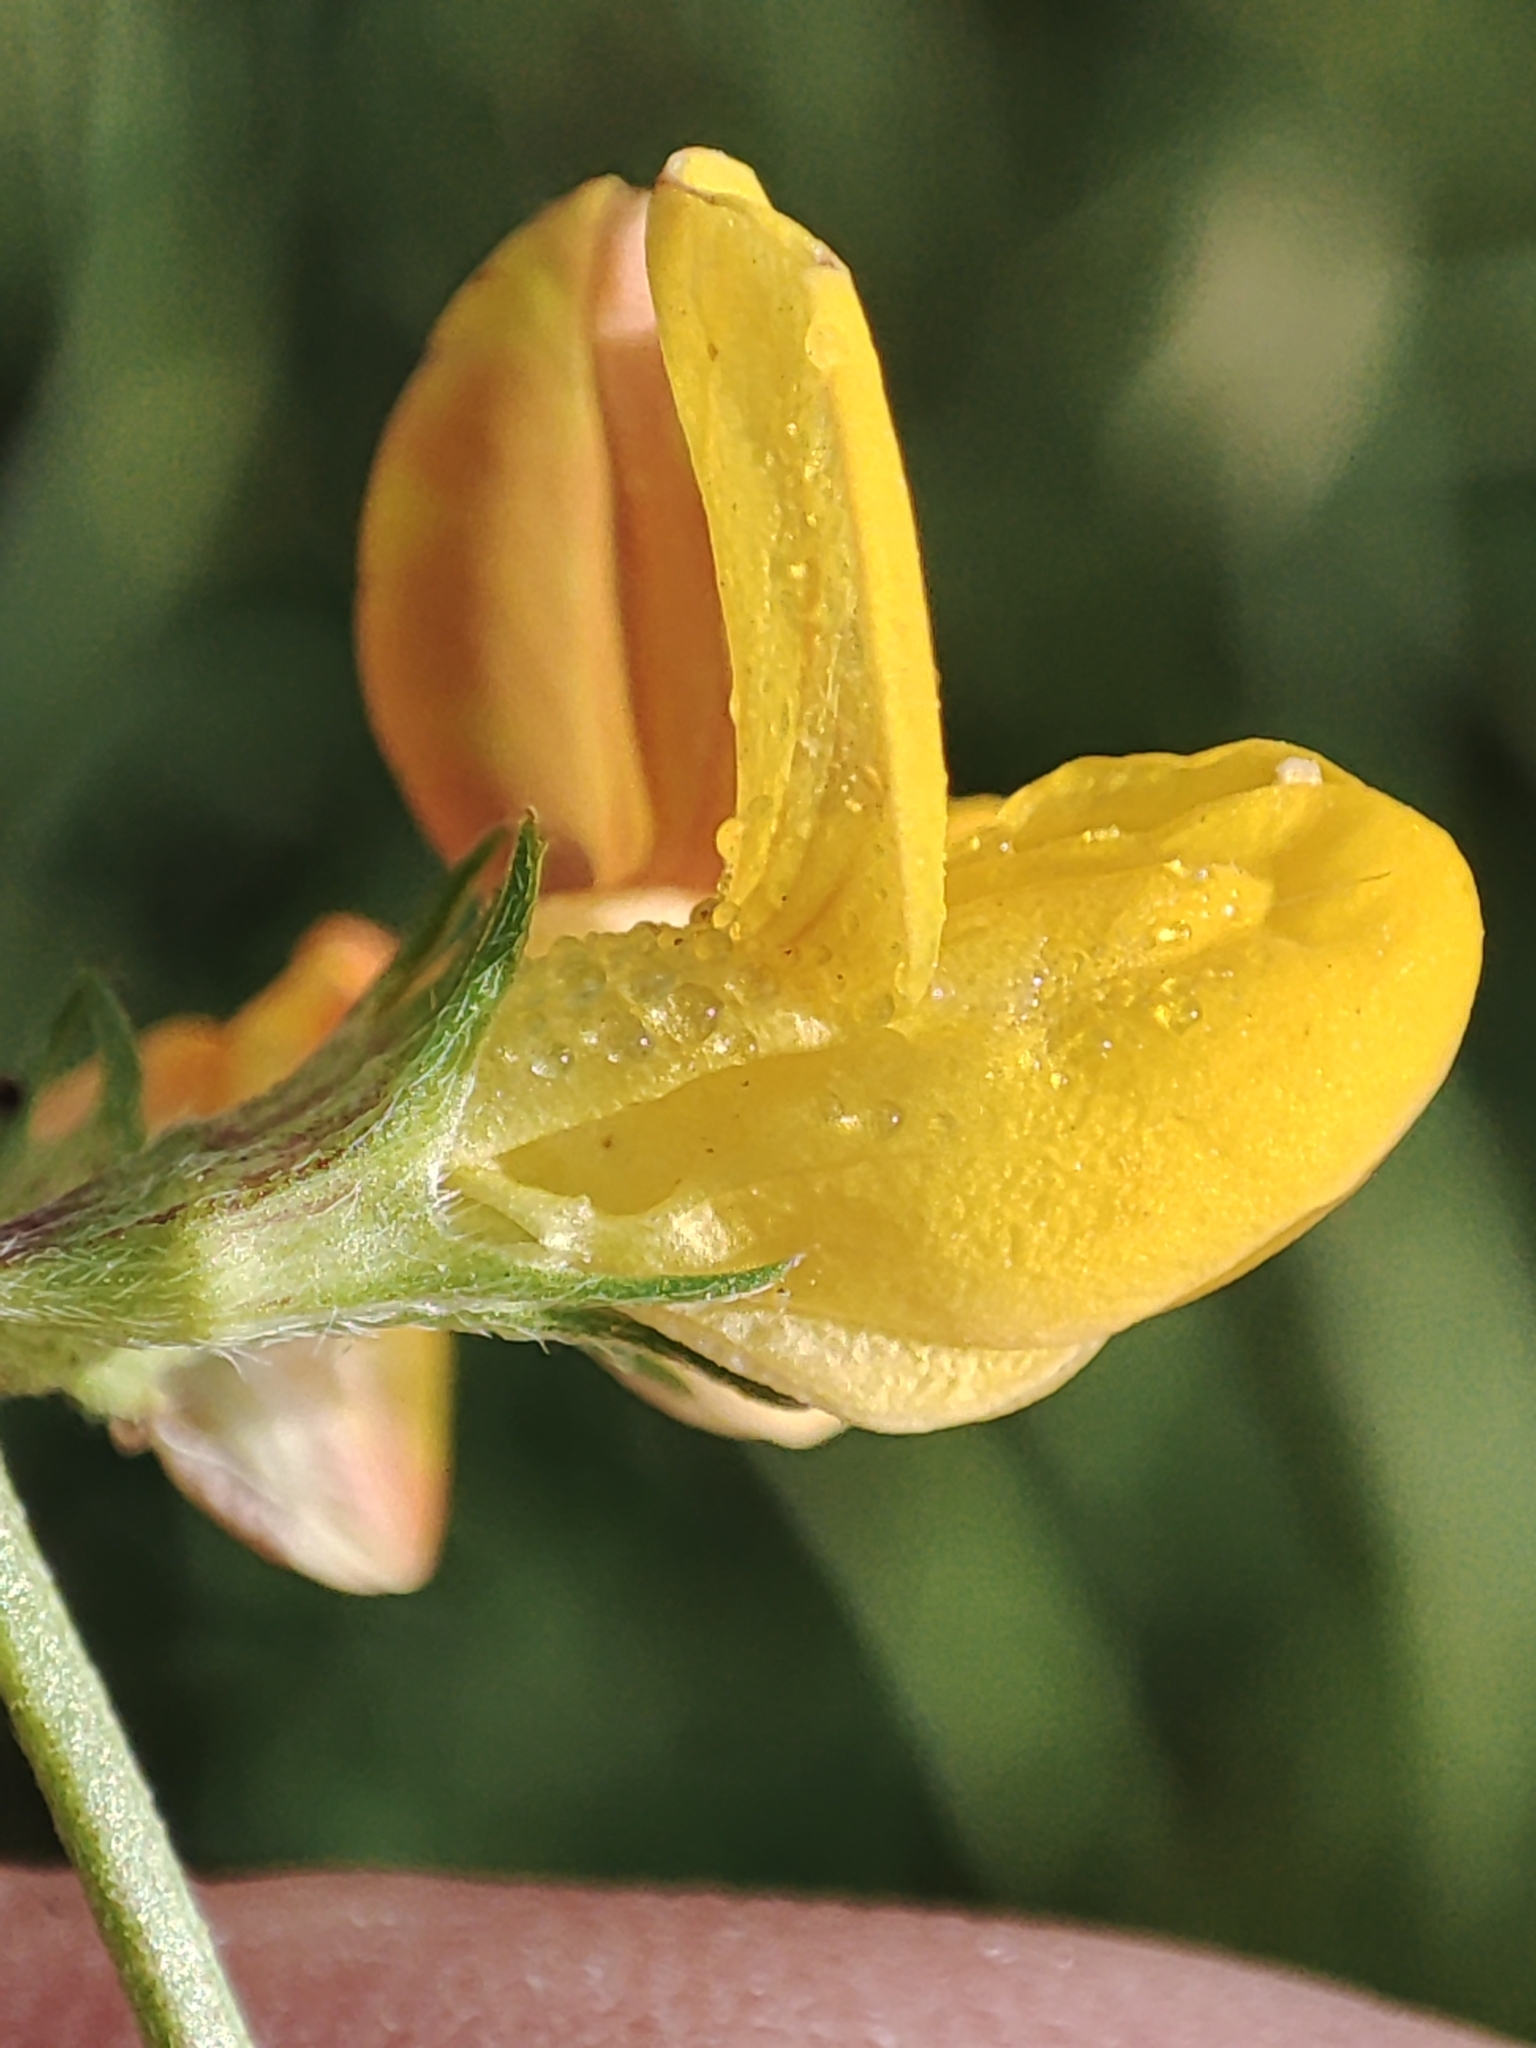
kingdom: Plantae
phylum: Tracheophyta
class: Magnoliopsida
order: Fabales
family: Fabaceae
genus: Lotus
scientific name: Lotus tenuis
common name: Narrow-leaved bird's-foot-trefoil
